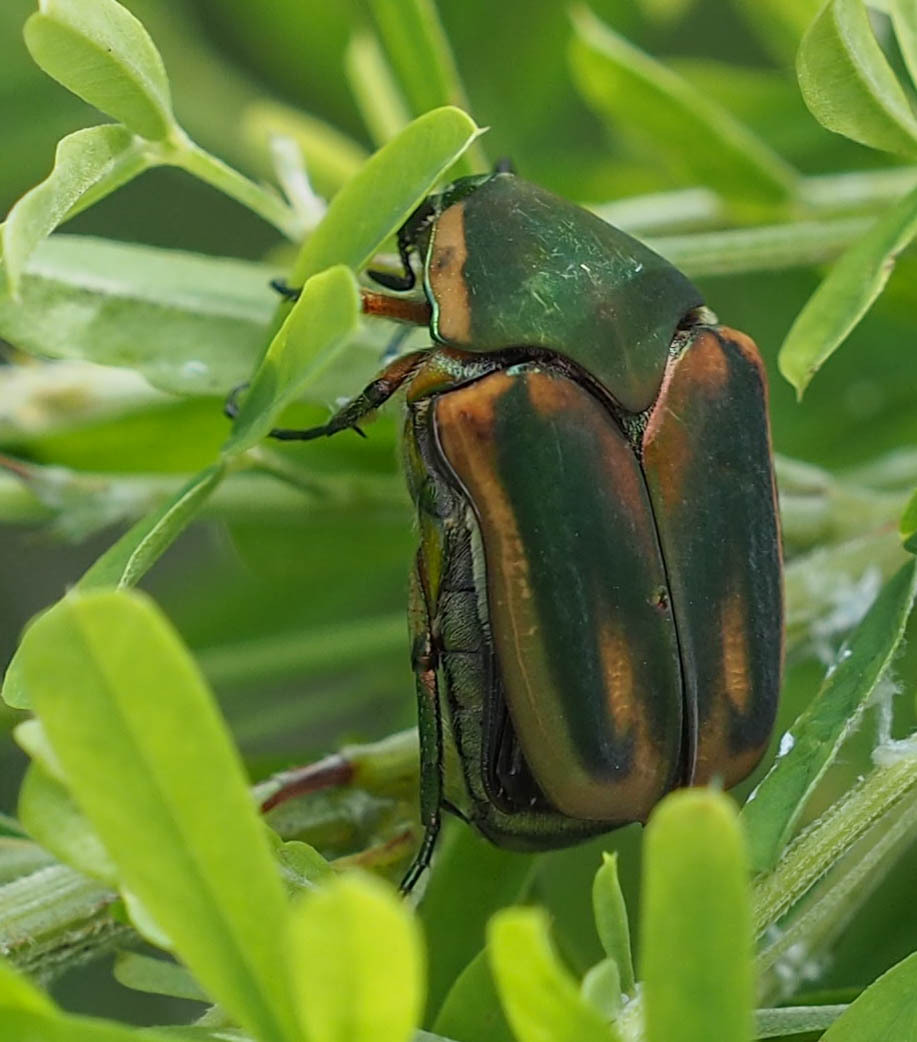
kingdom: Animalia
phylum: Arthropoda
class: Insecta
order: Coleoptera
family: Scarabaeidae
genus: Cotinis
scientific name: Cotinis nitida
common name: Common green june beetle
